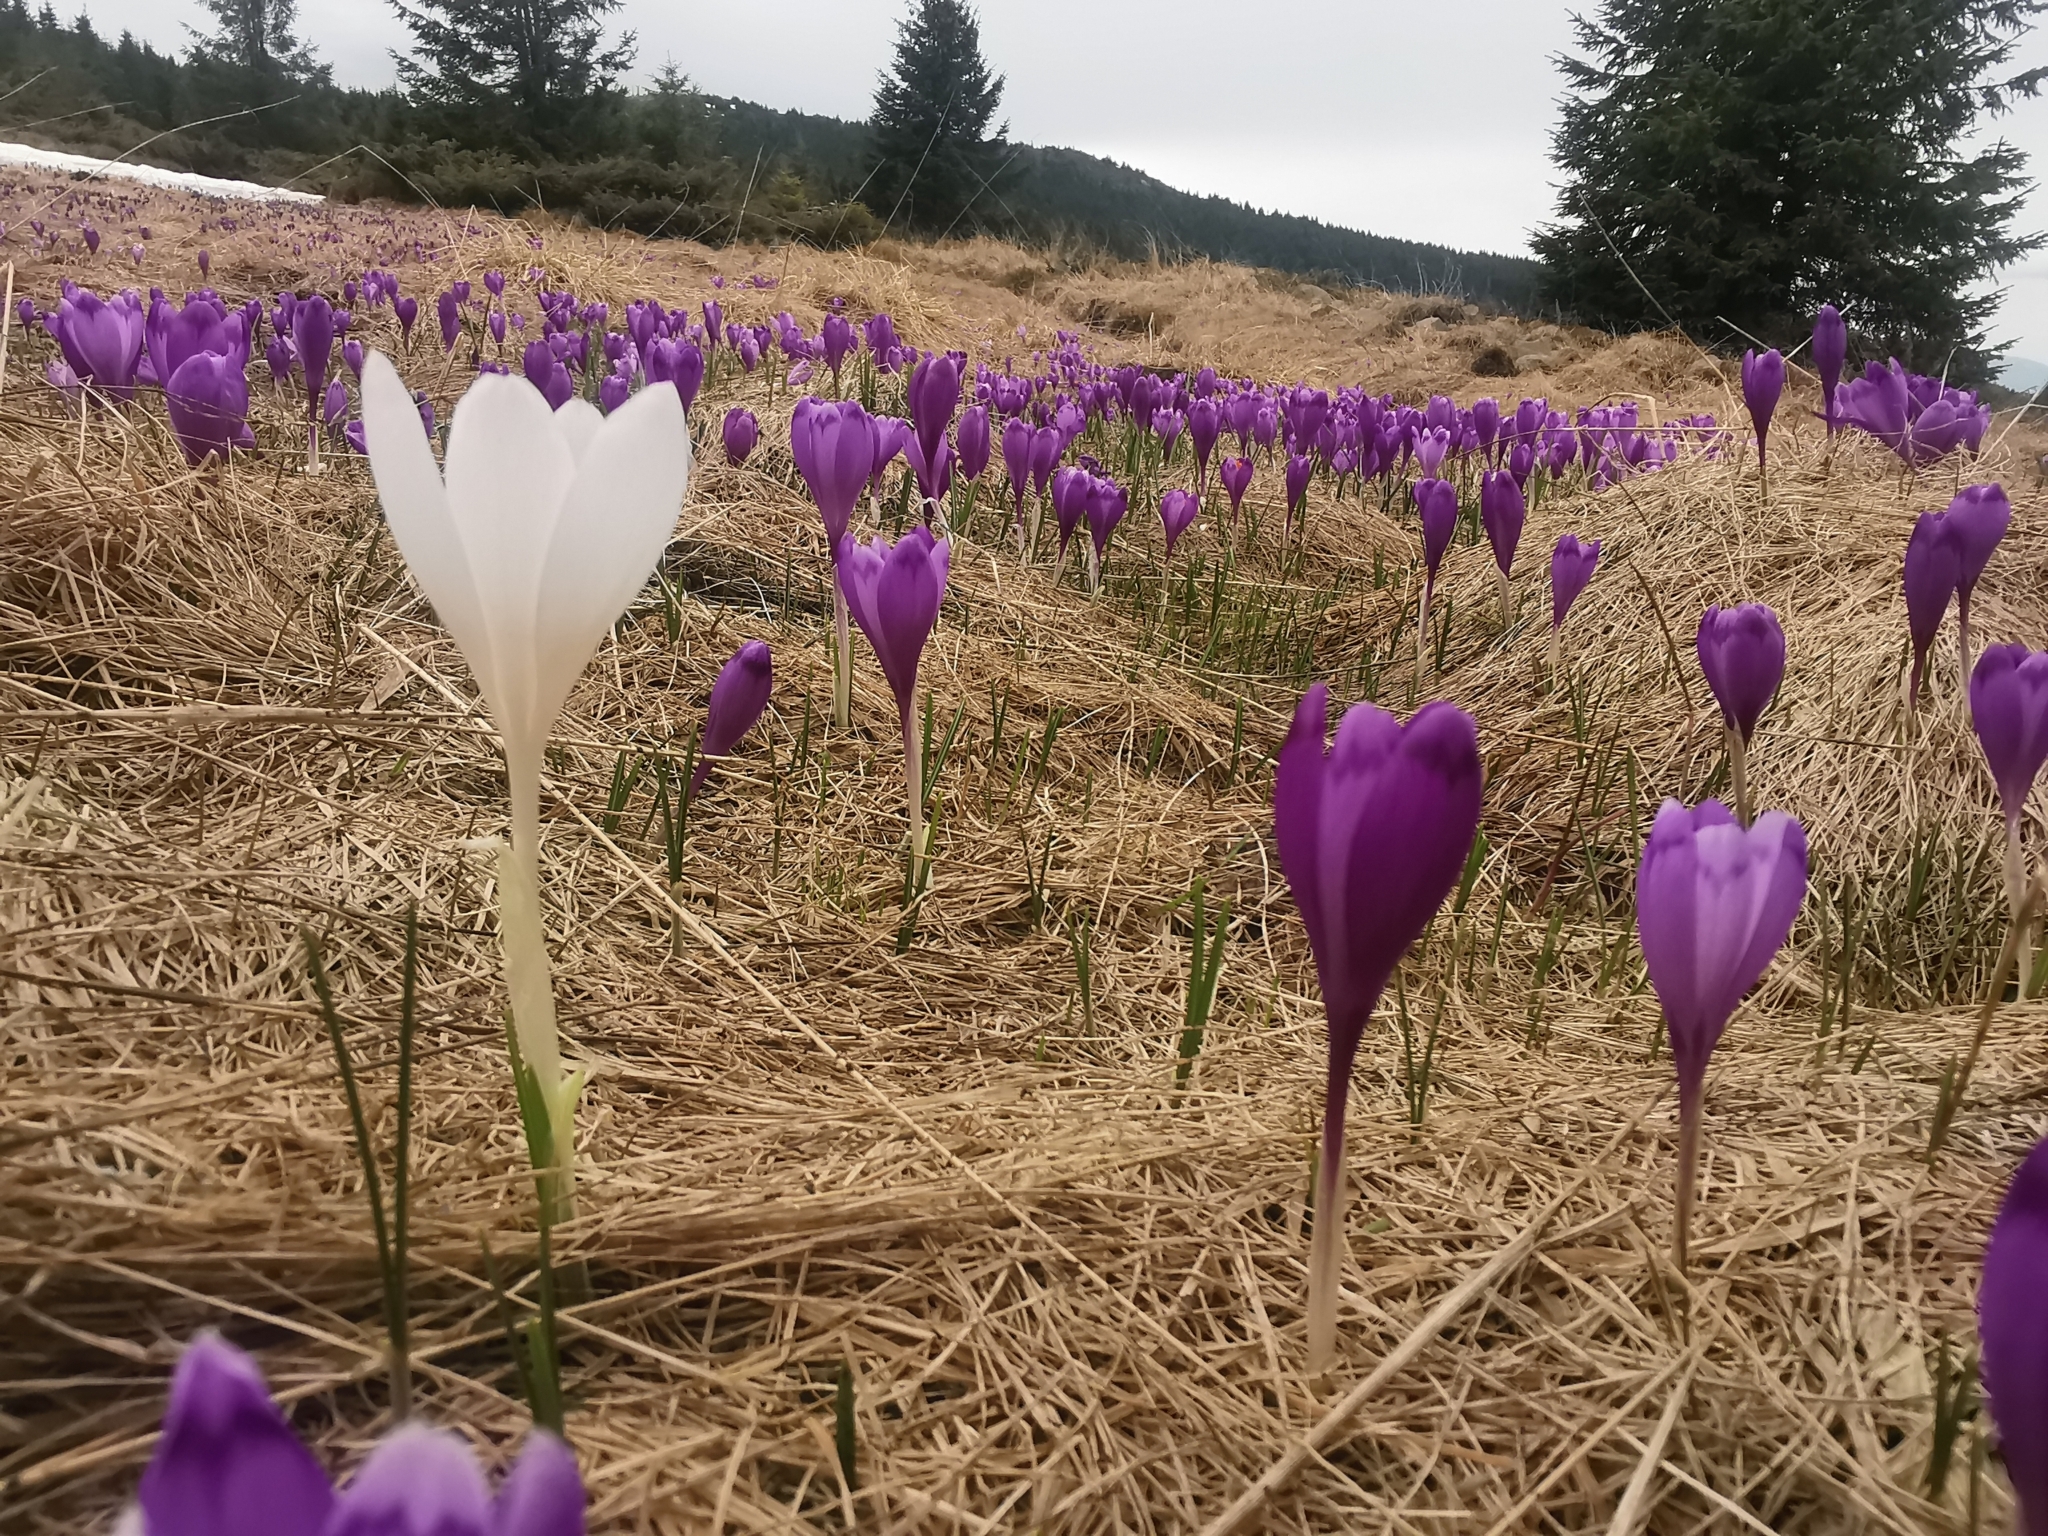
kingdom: Plantae
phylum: Tracheophyta
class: Liliopsida
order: Asparagales
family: Iridaceae
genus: Crocus
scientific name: Crocus heuffelianus
